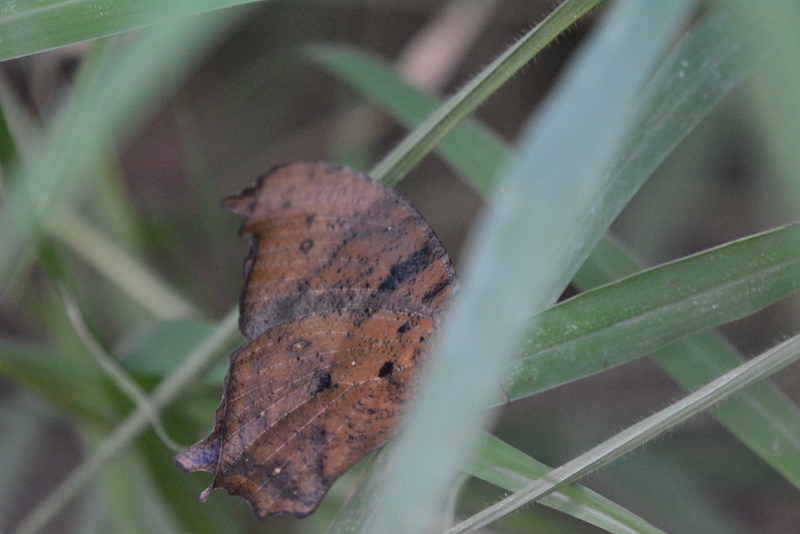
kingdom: Animalia
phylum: Arthropoda
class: Insecta
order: Lepidoptera
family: Nymphalidae
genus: Melanitis
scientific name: Melanitis leda
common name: Twilight brown
